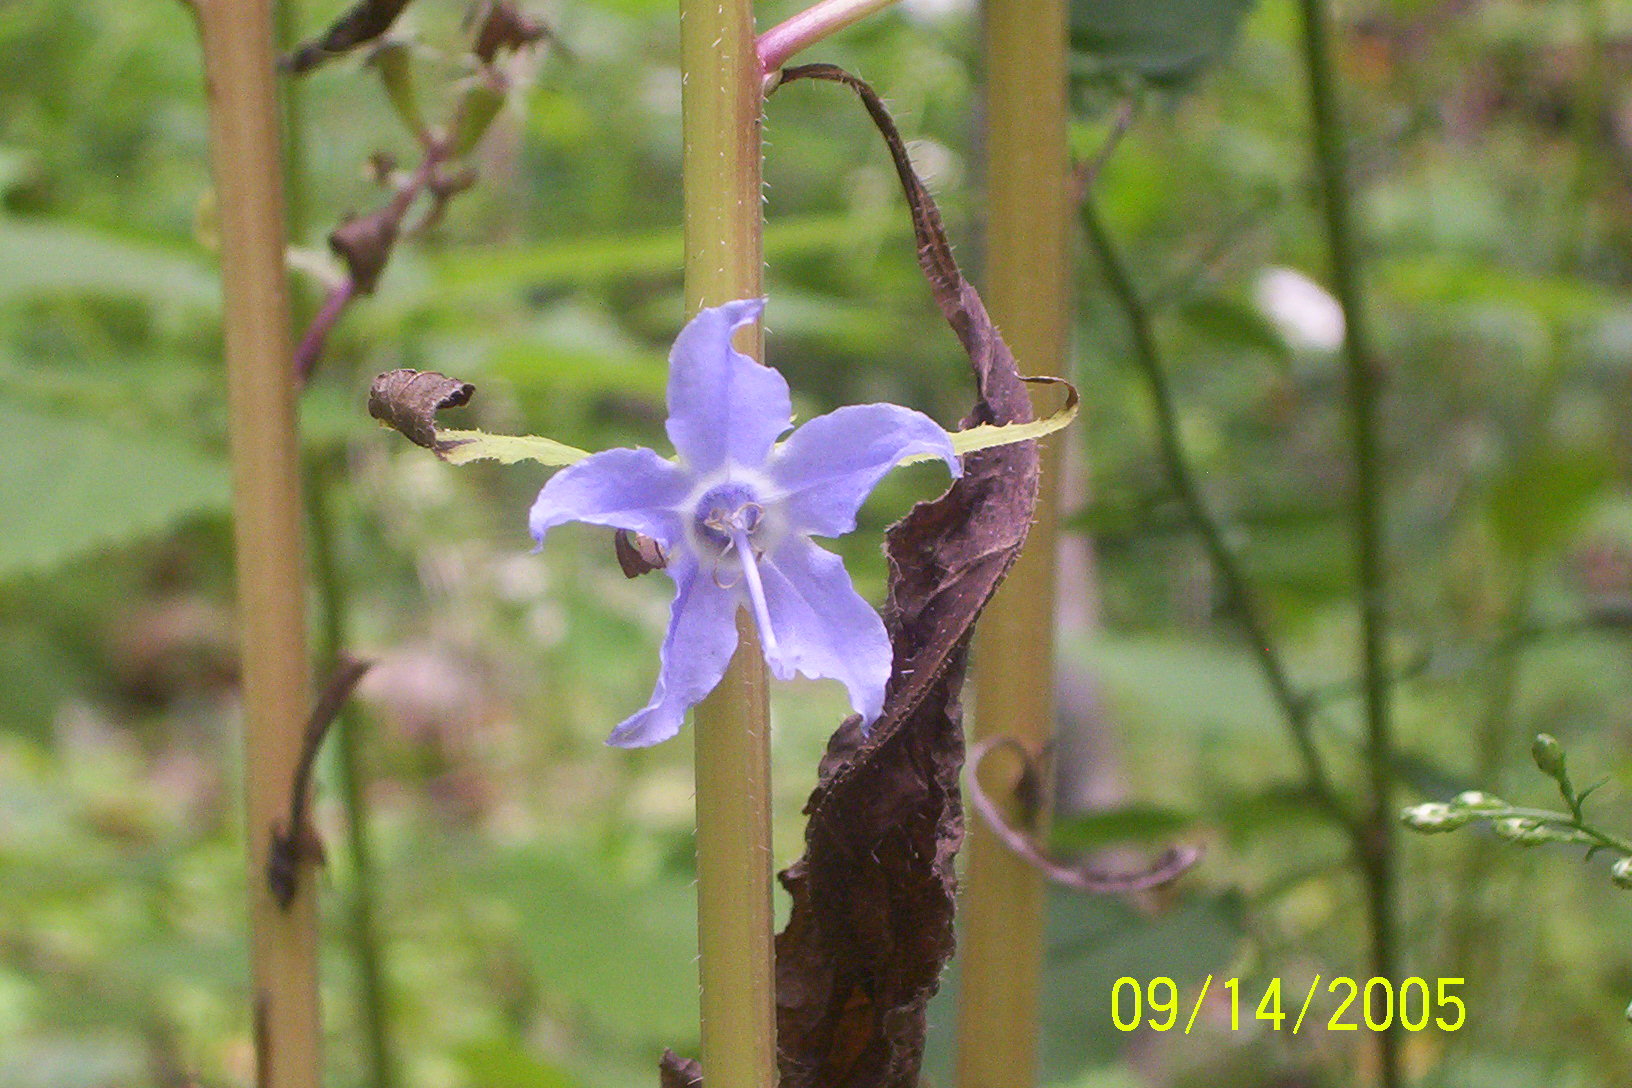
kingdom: Plantae
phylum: Tracheophyta
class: Magnoliopsida
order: Asterales
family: Campanulaceae
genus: Campanulastrum
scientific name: Campanulastrum americanum
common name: American bellflower
